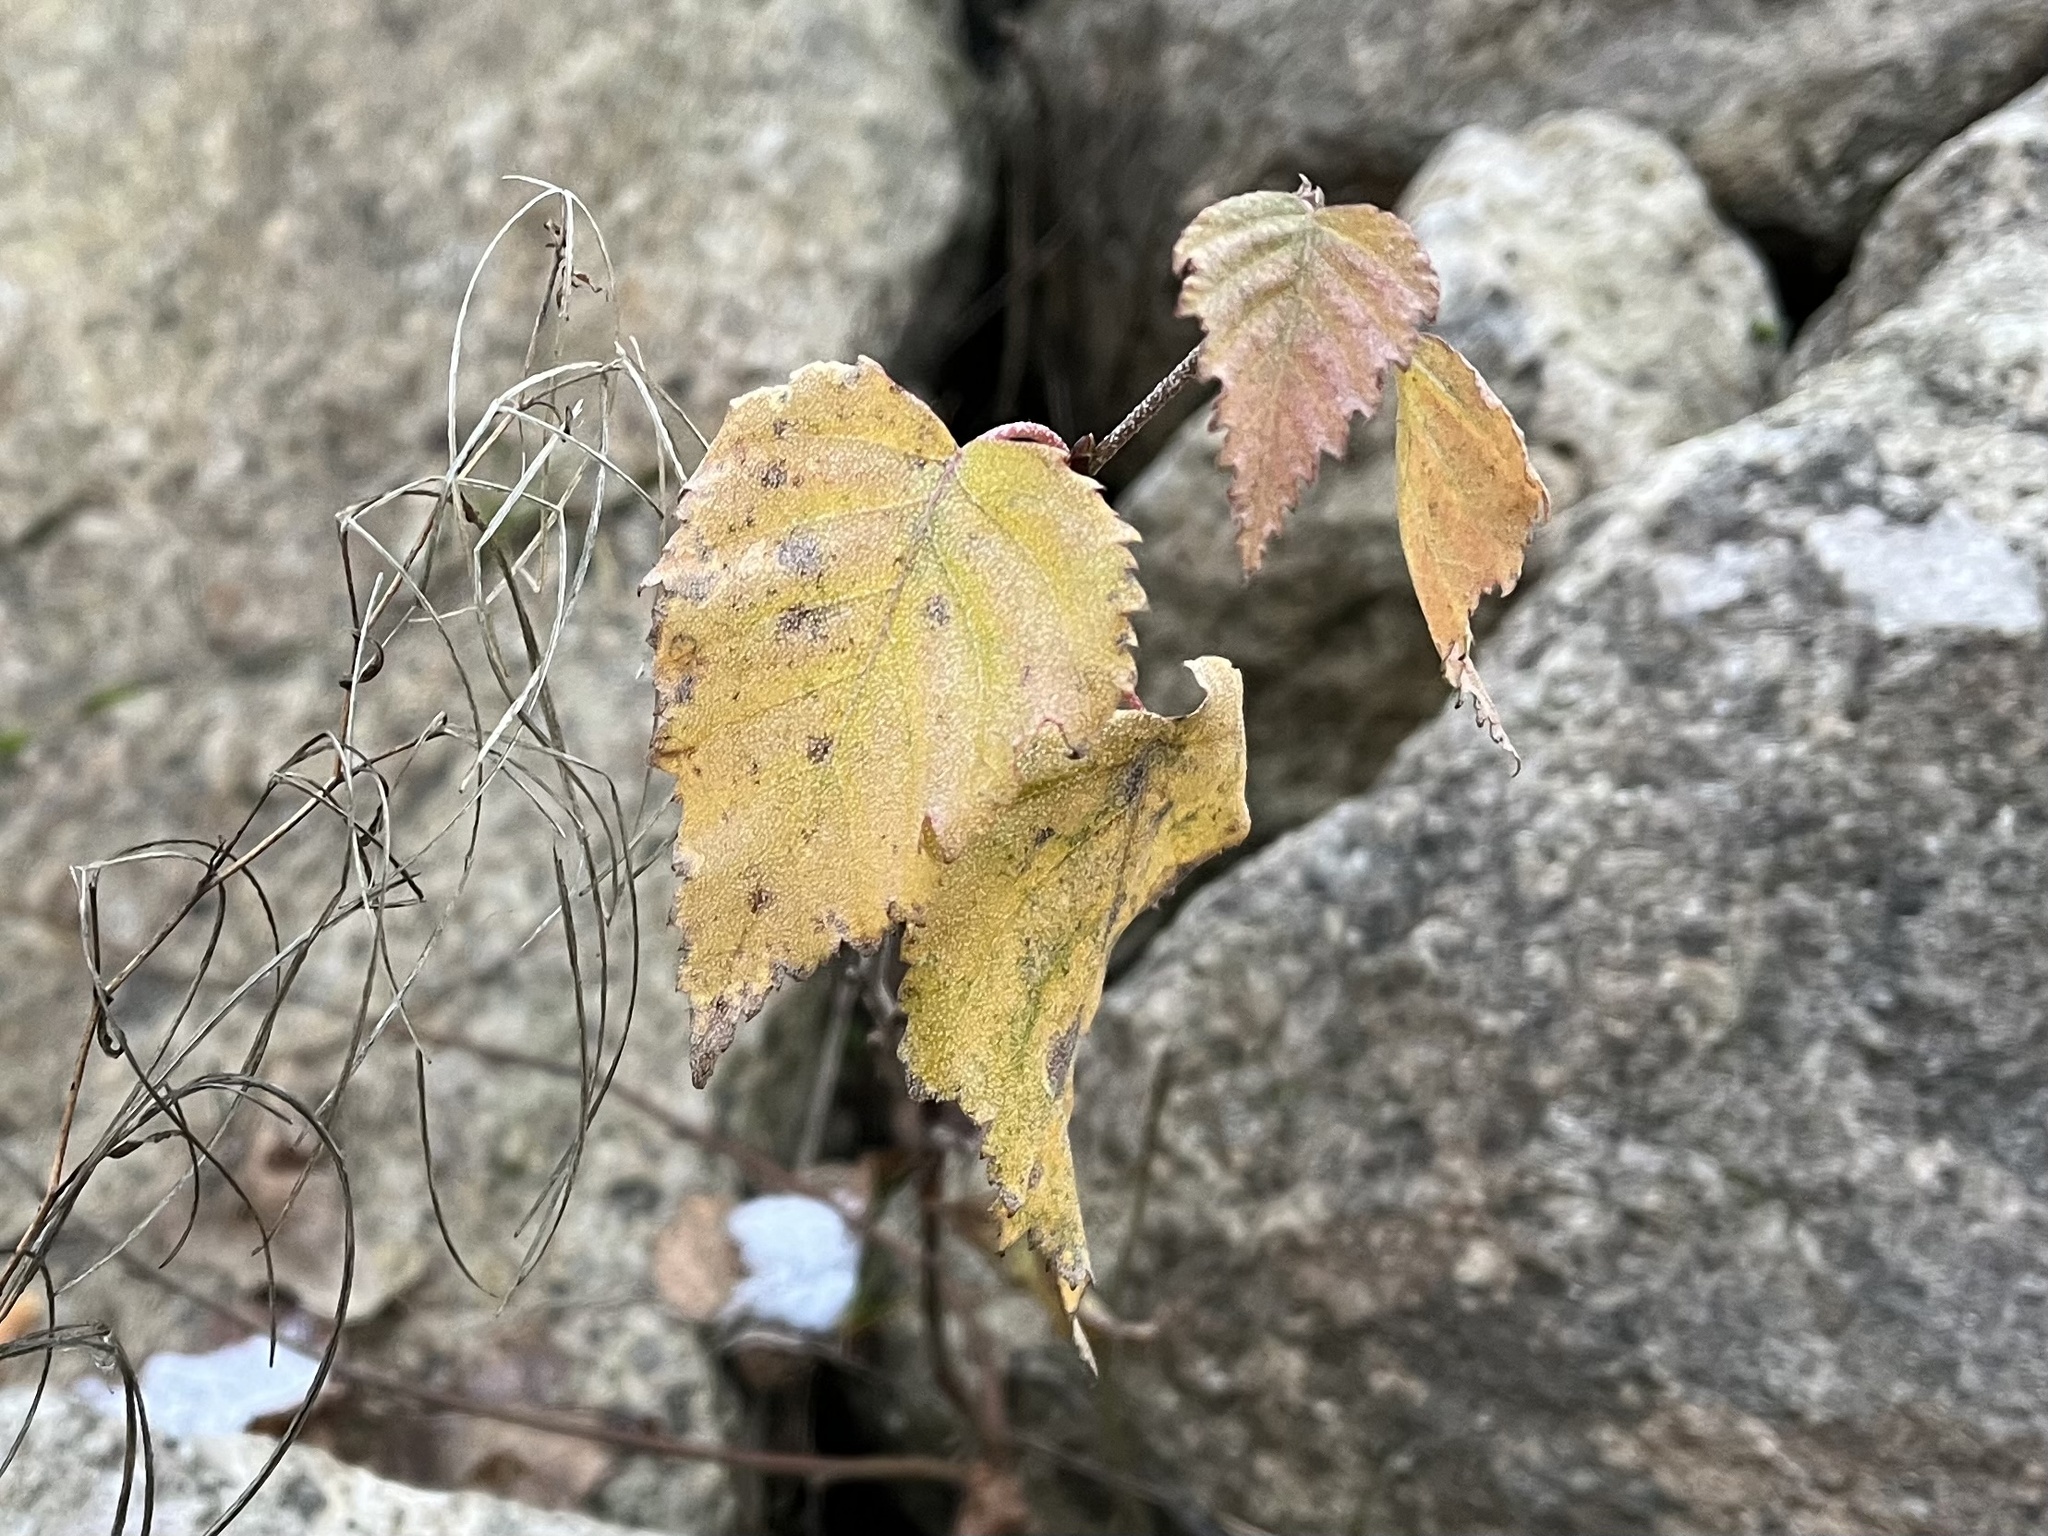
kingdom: Plantae
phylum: Tracheophyta
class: Magnoliopsida
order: Fagales
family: Betulaceae
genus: Betula
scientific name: Betula pendula
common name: Silver birch
